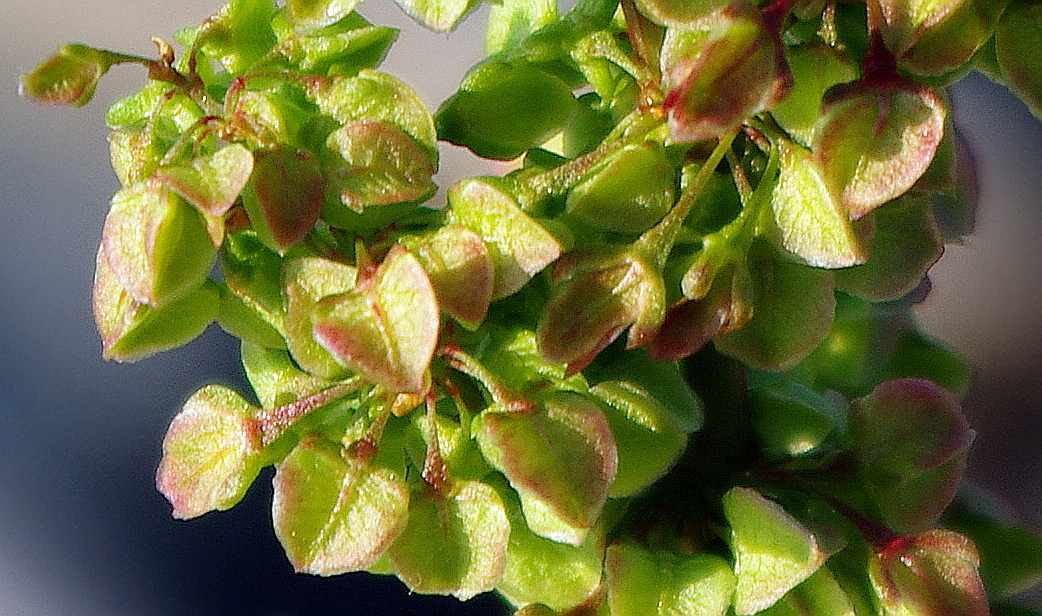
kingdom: Plantae
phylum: Tracheophyta
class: Magnoliopsida
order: Caryophyllales
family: Polygonaceae
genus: Rumex
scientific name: Rumex pseudonatronatus
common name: Field dock
